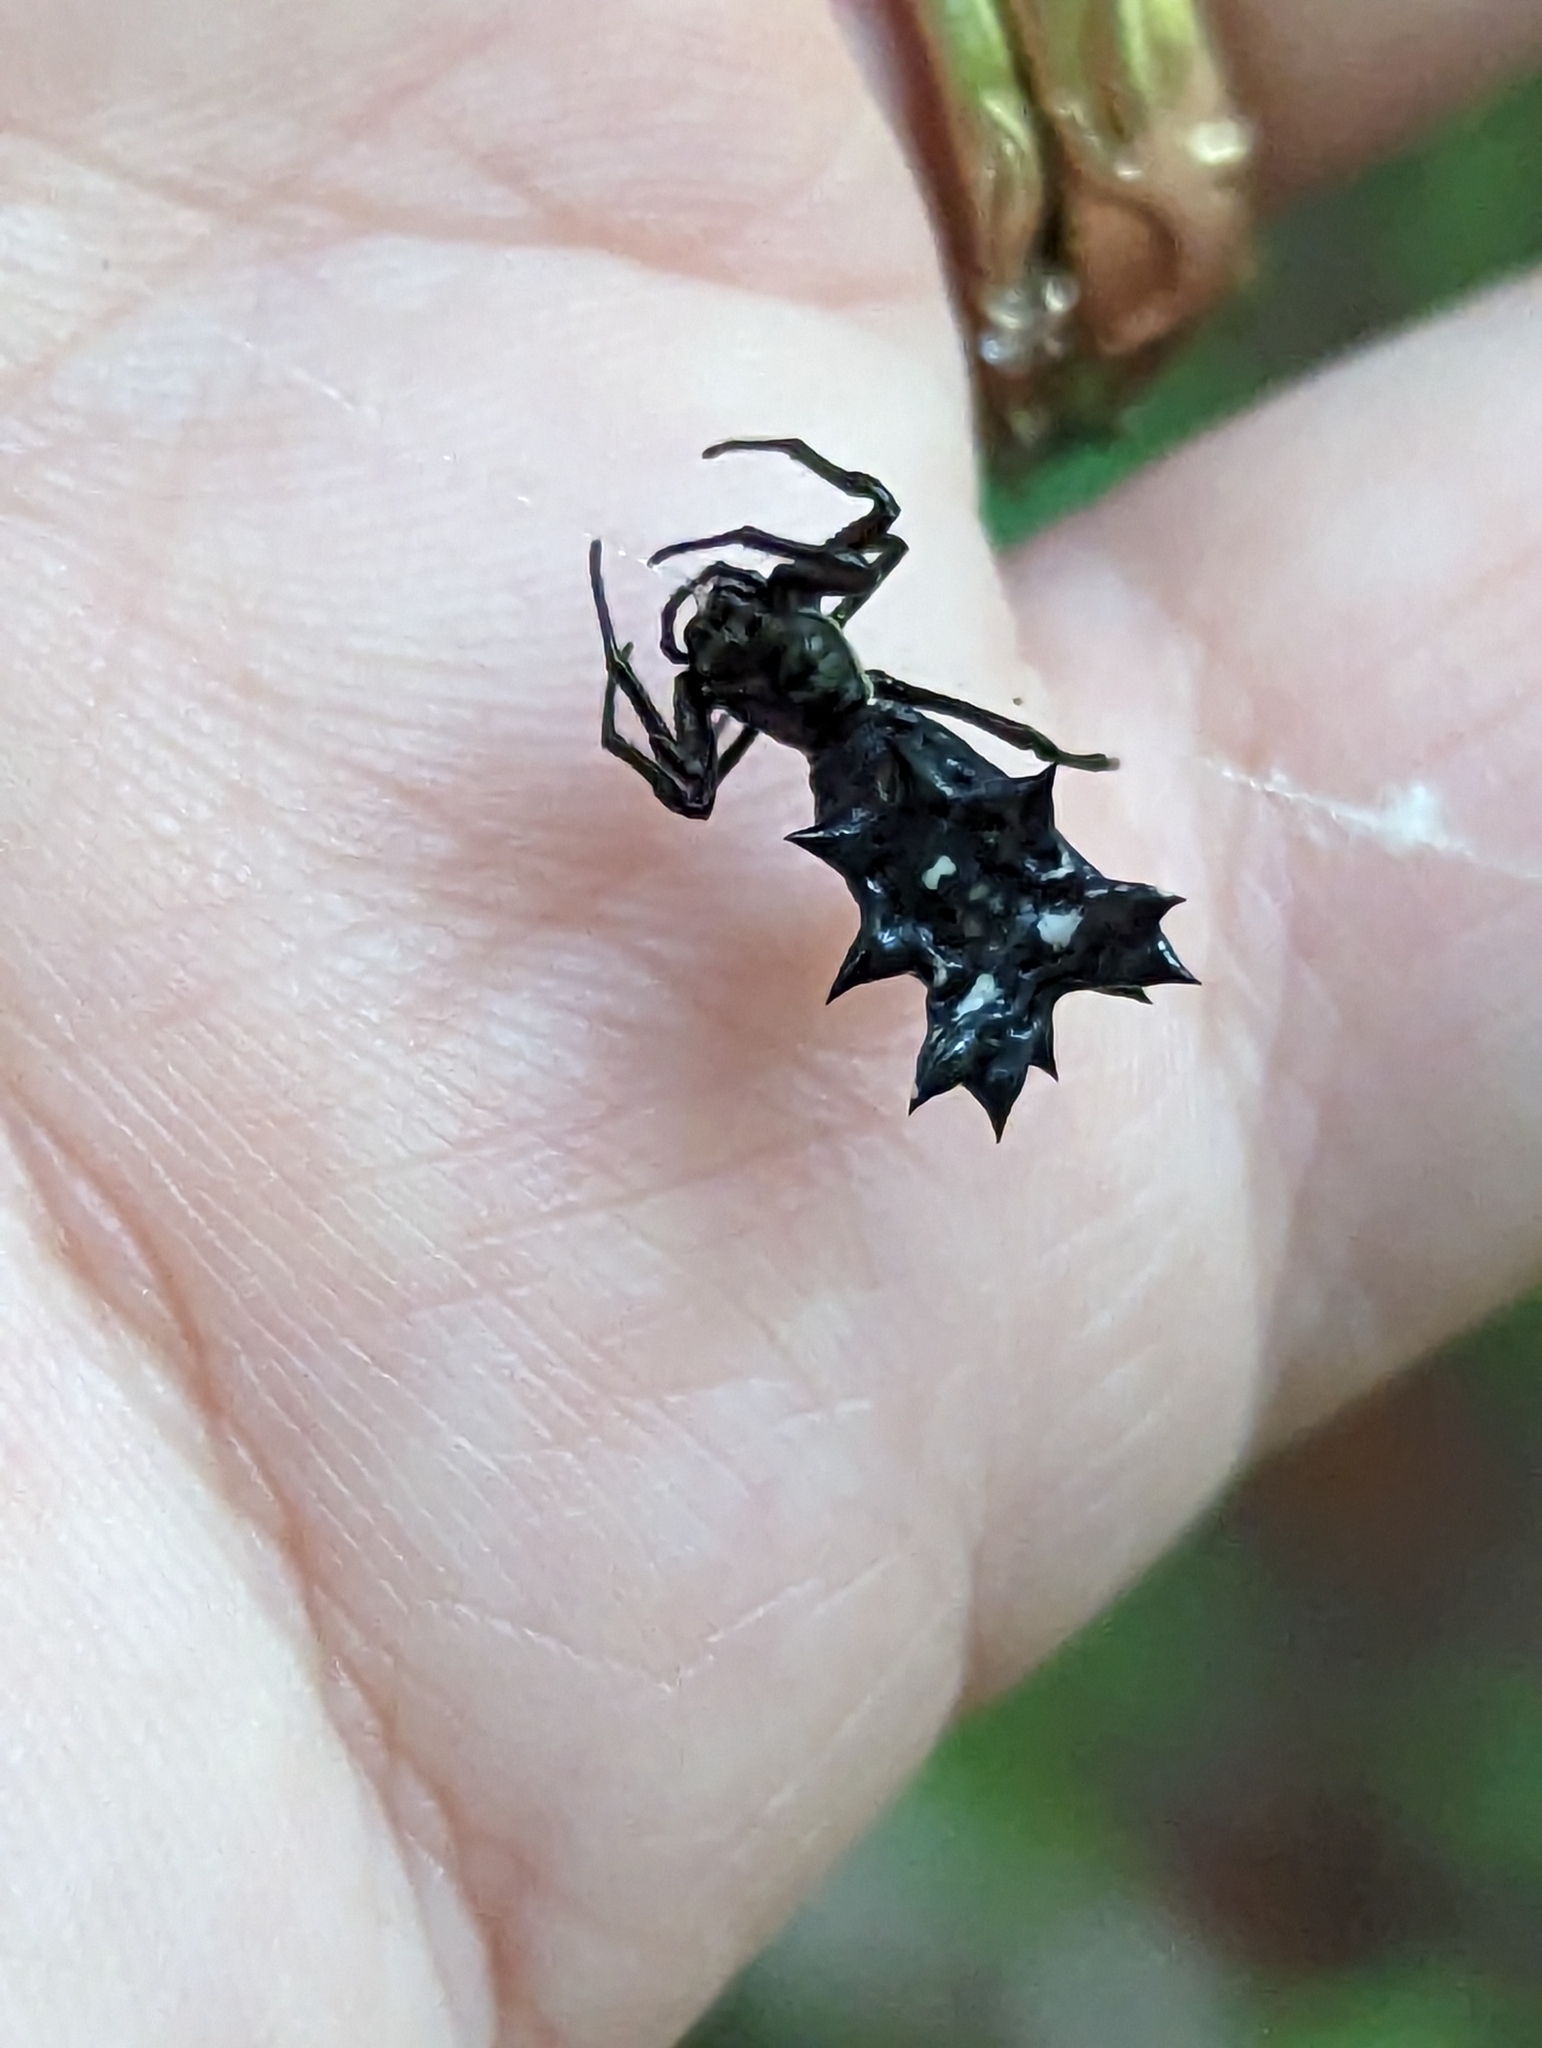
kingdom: Animalia
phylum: Arthropoda
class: Arachnida
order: Araneae
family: Araneidae
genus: Micrathena
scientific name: Micrathena gracilis
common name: Orb weavers
